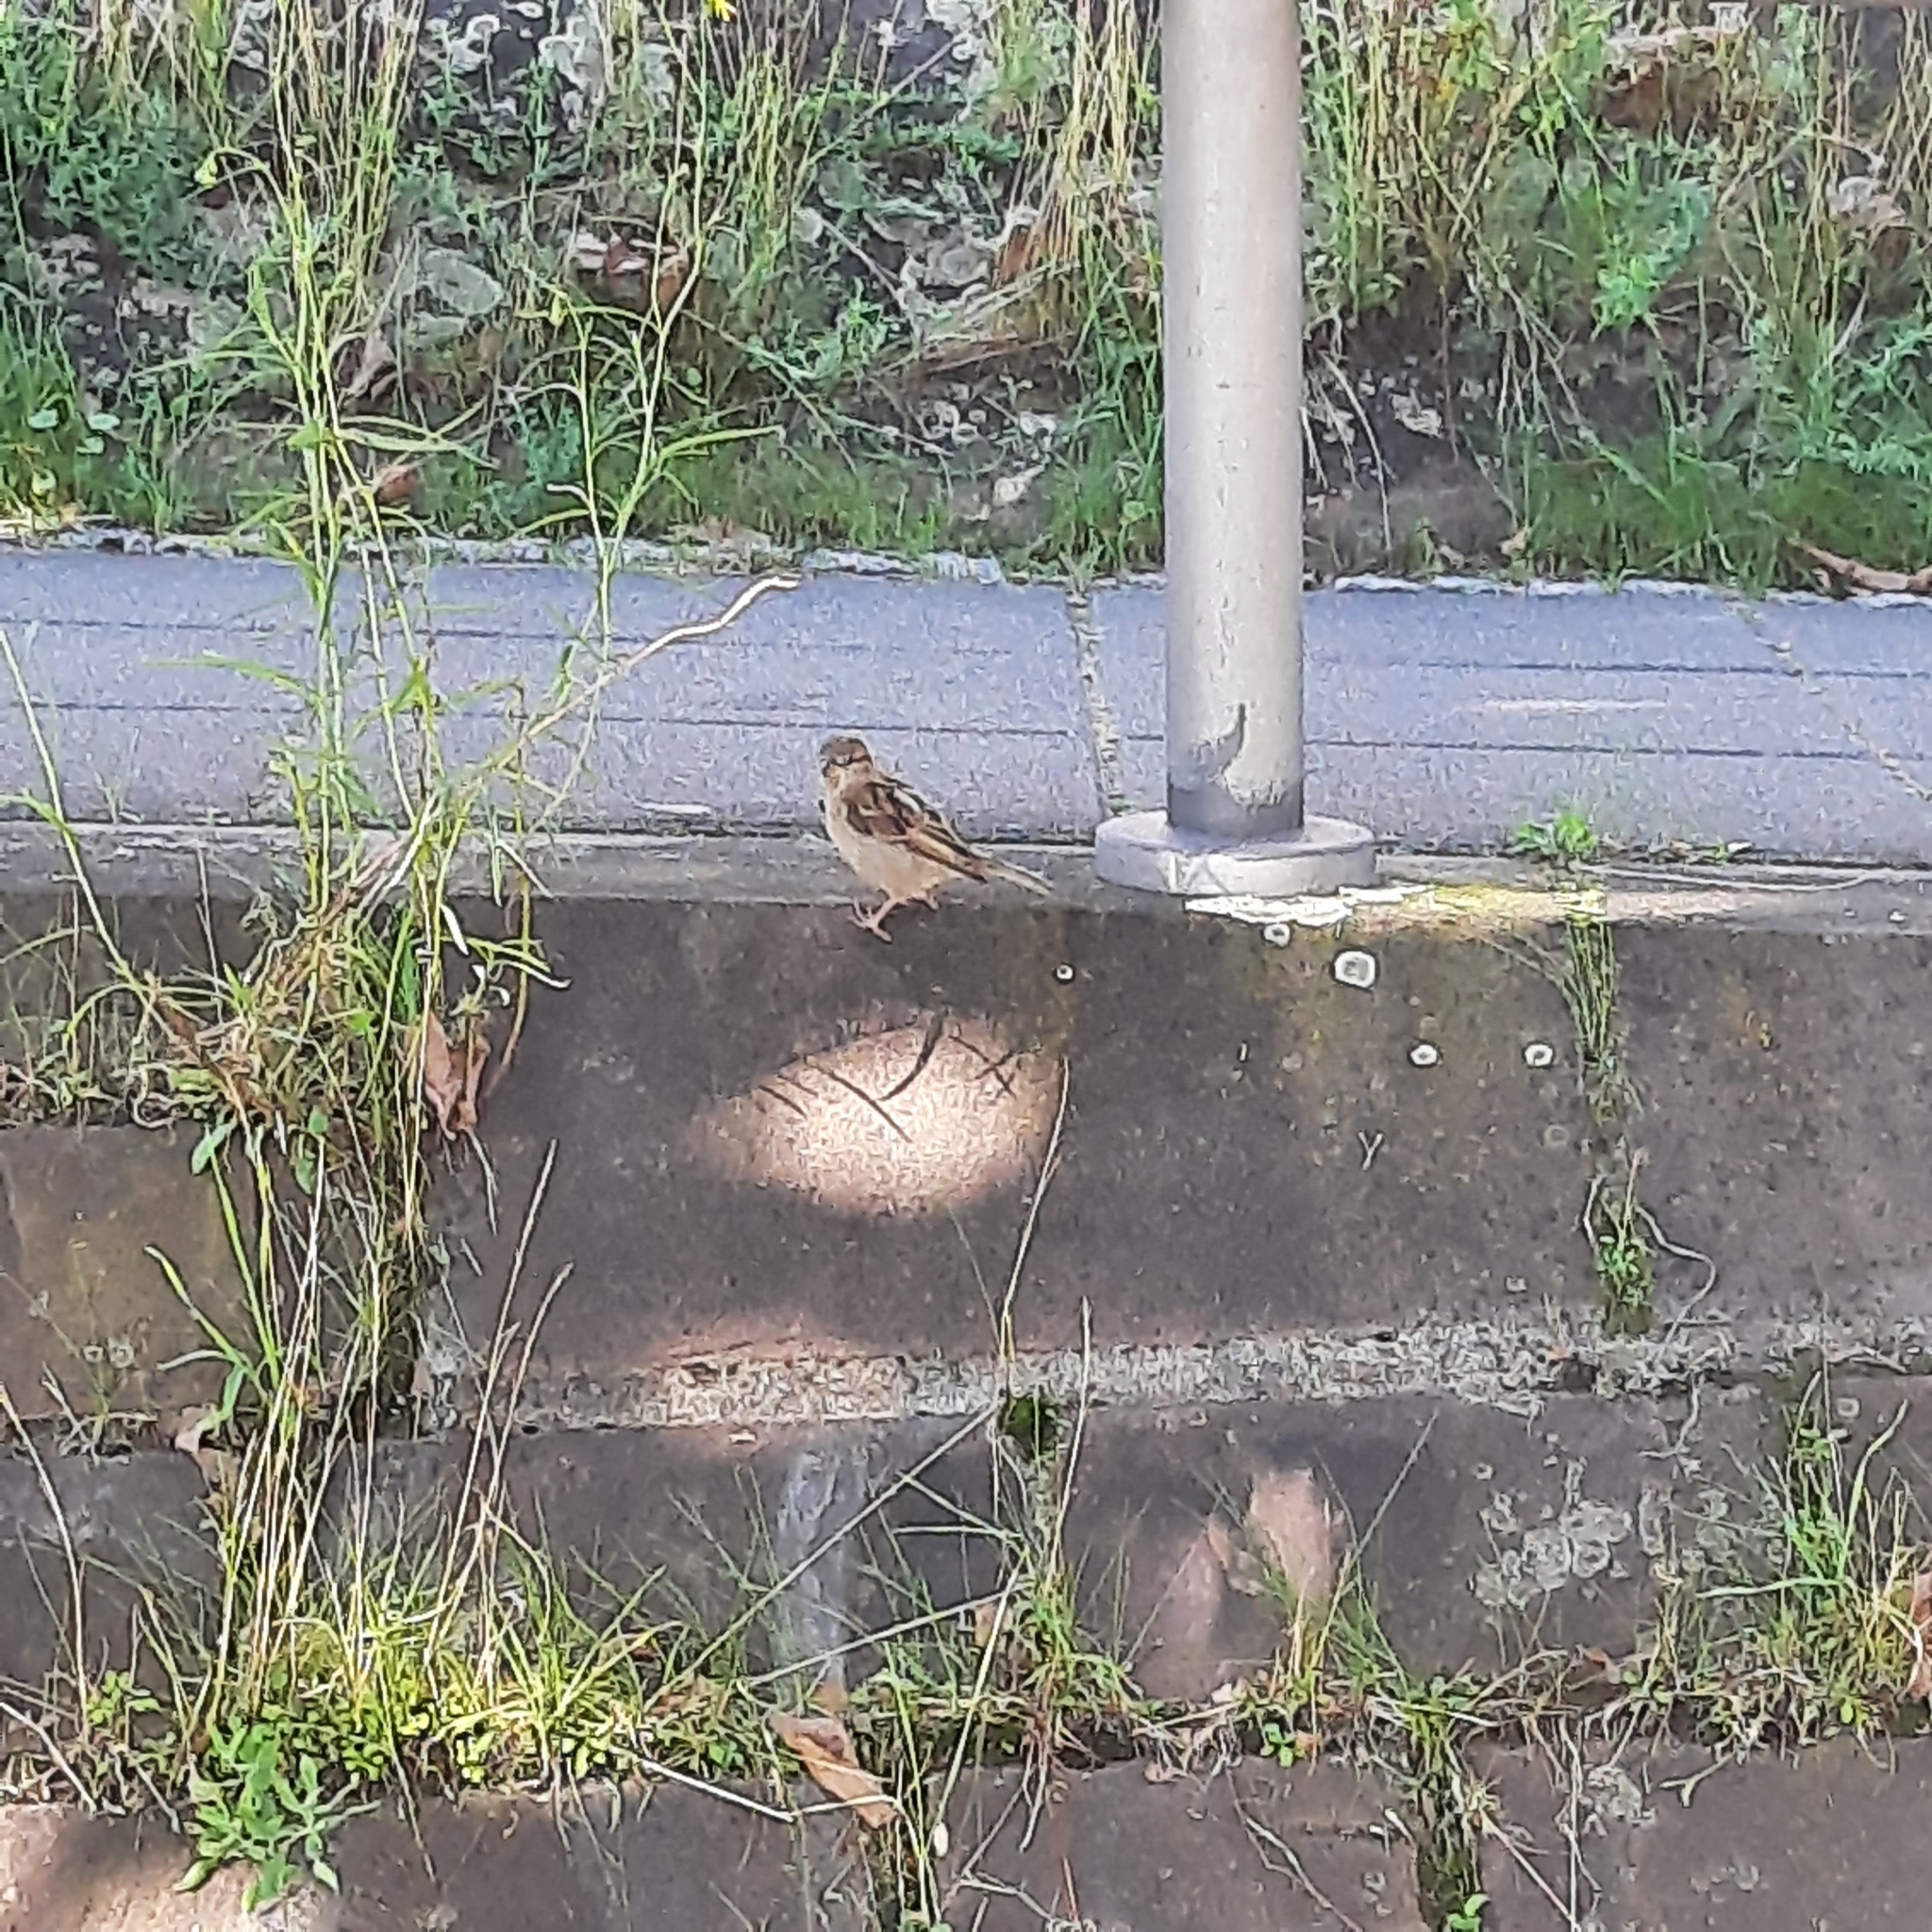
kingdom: Animalia
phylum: Chordata
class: Aves
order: Passeriformes
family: Passeridae
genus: Passer
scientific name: Passer domesticus
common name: House sparrow
